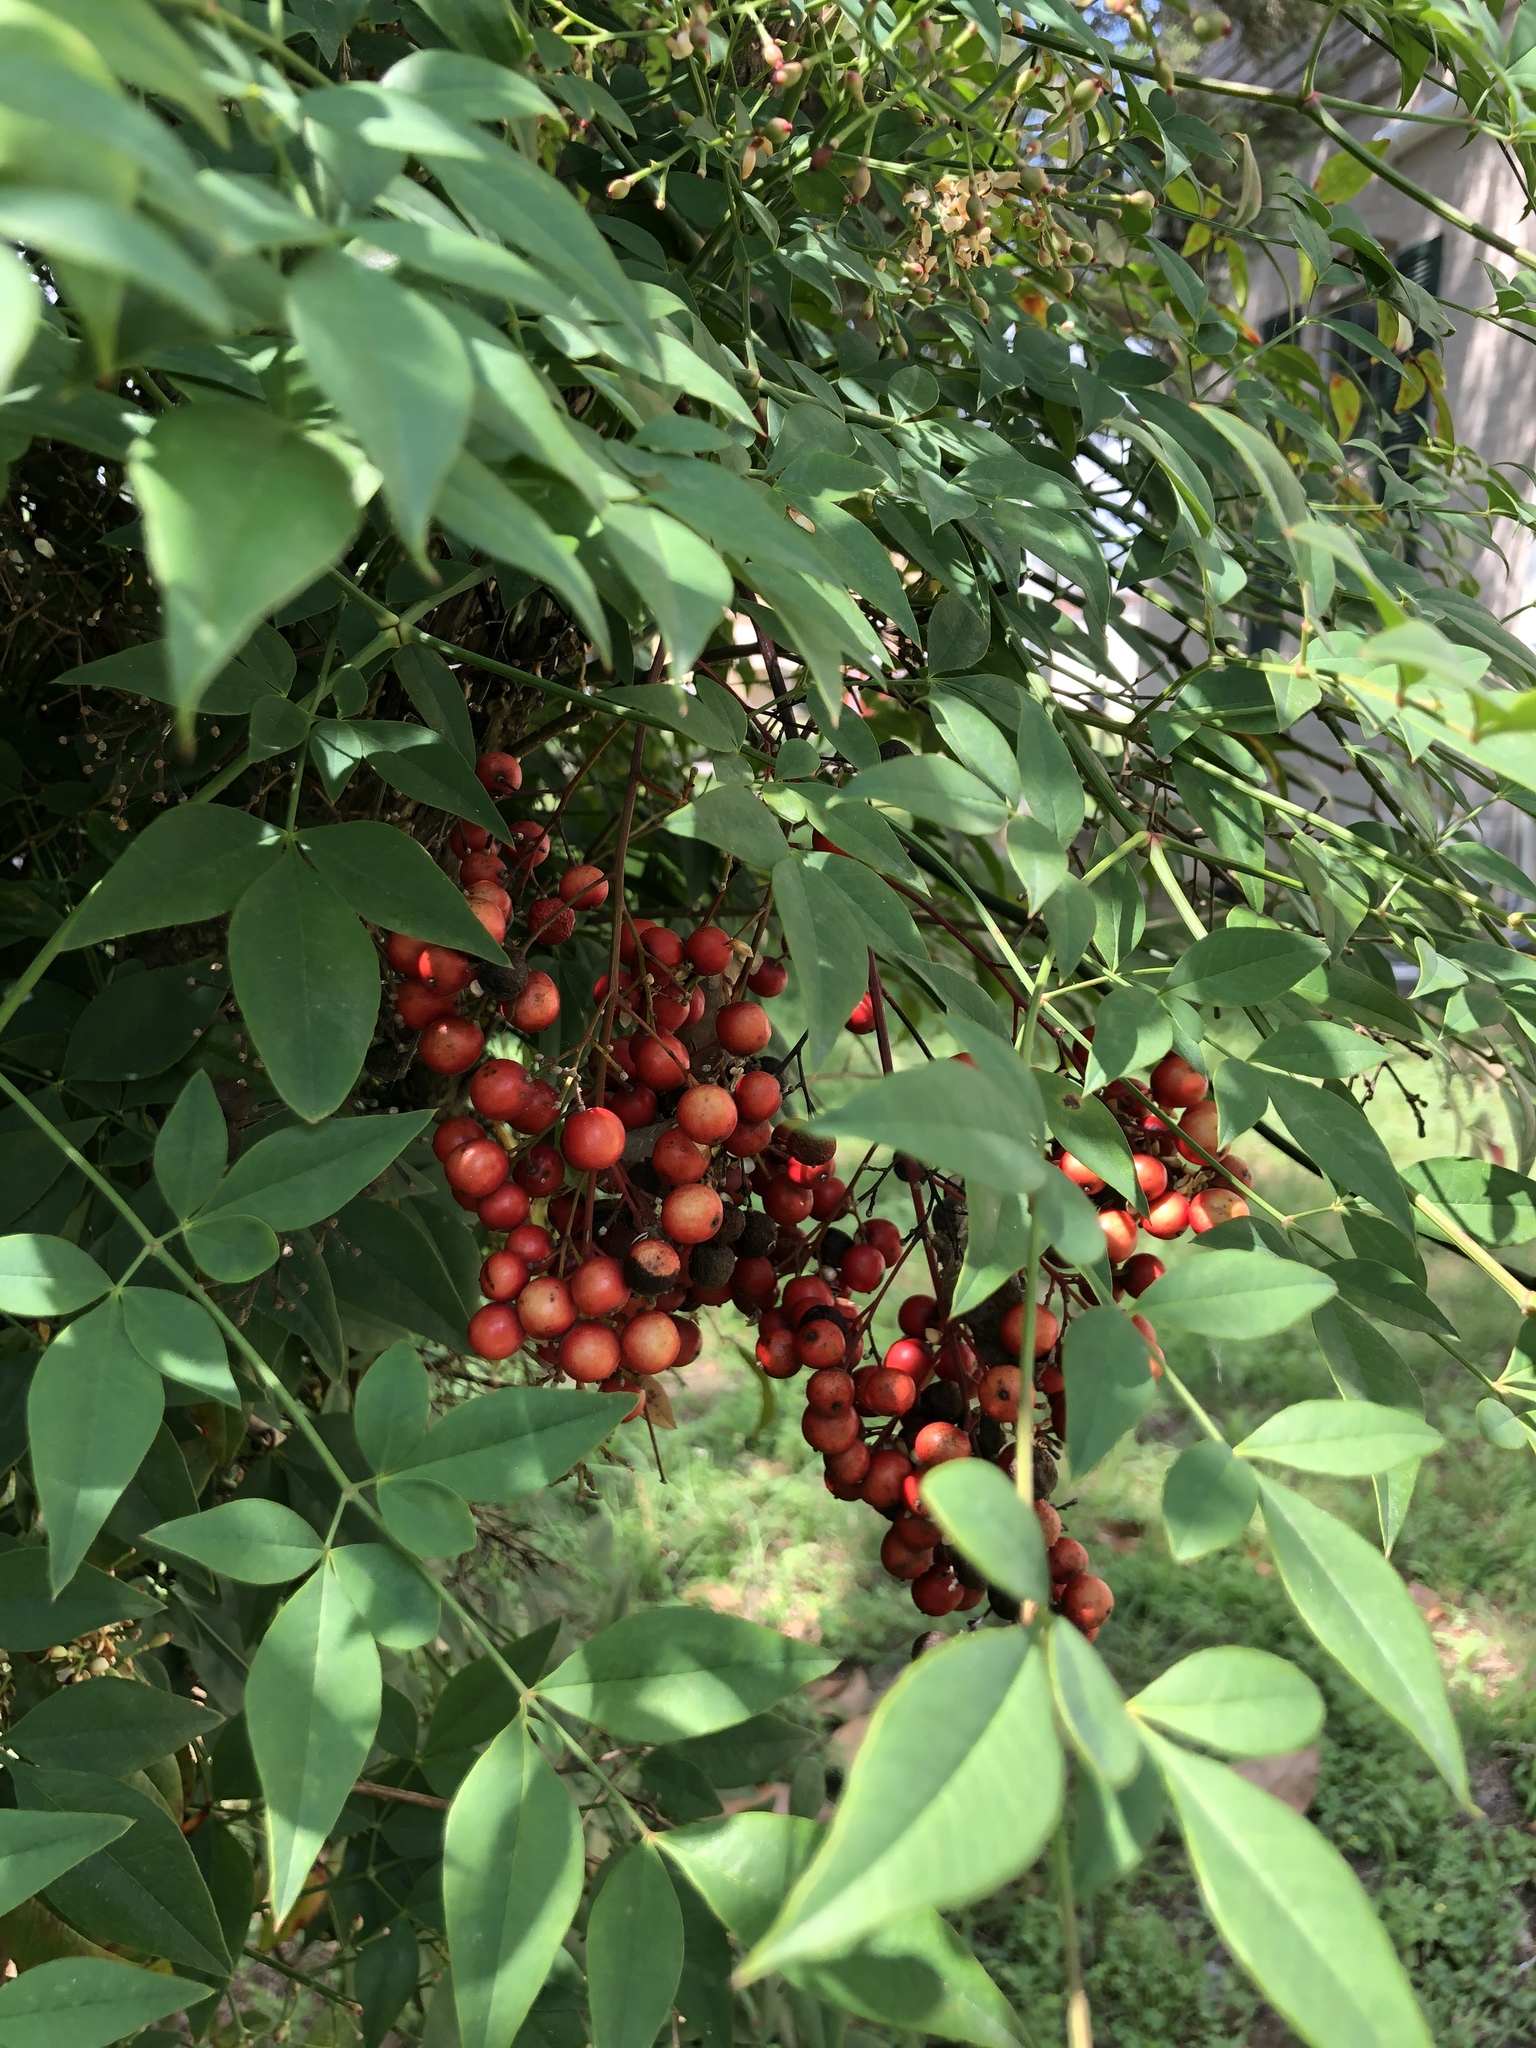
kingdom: Plantae
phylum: Tracheophyta
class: Magnoliopsida
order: Ranunculales
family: Berberidaceae
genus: Nandina
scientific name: Nandina domestica
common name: Sacred bamboo
